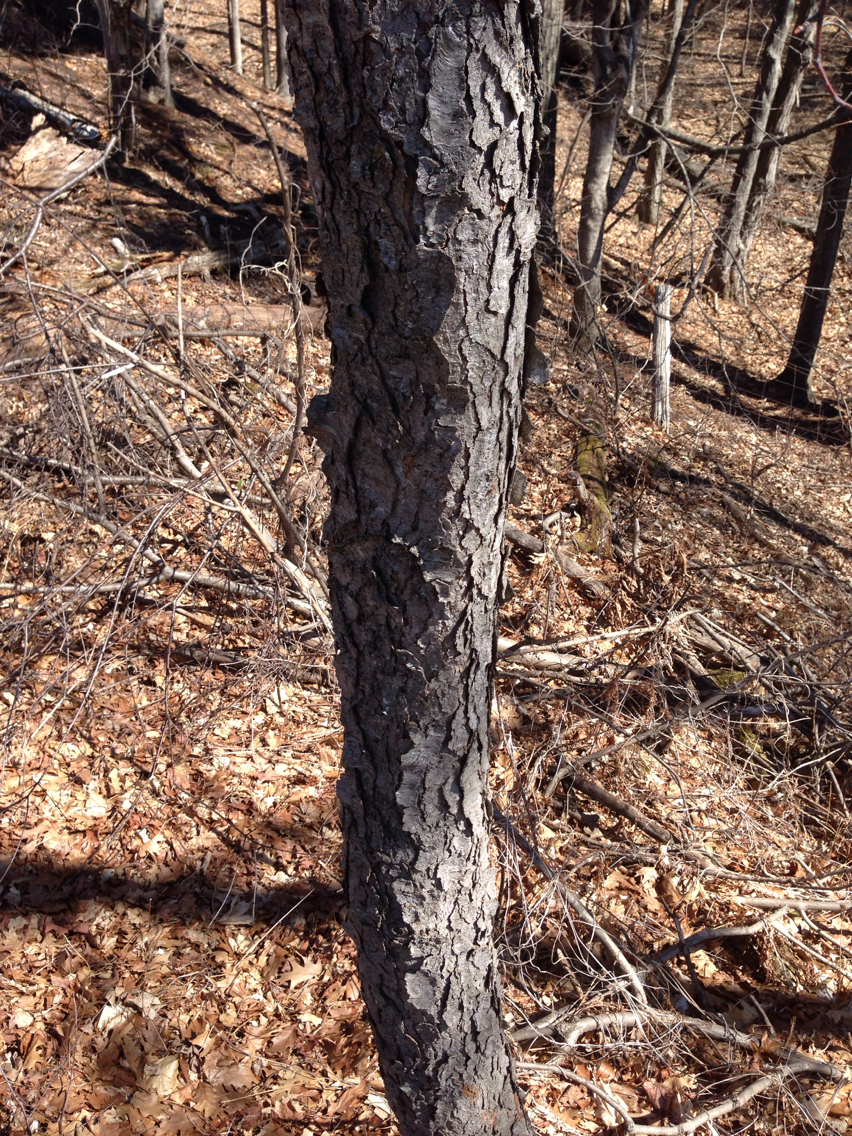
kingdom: Plantae
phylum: Tracheophyta
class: Magnoliopsida
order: Rosales
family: Rosaceae
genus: Prunus
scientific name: Prunus serotina
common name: Black cherry
